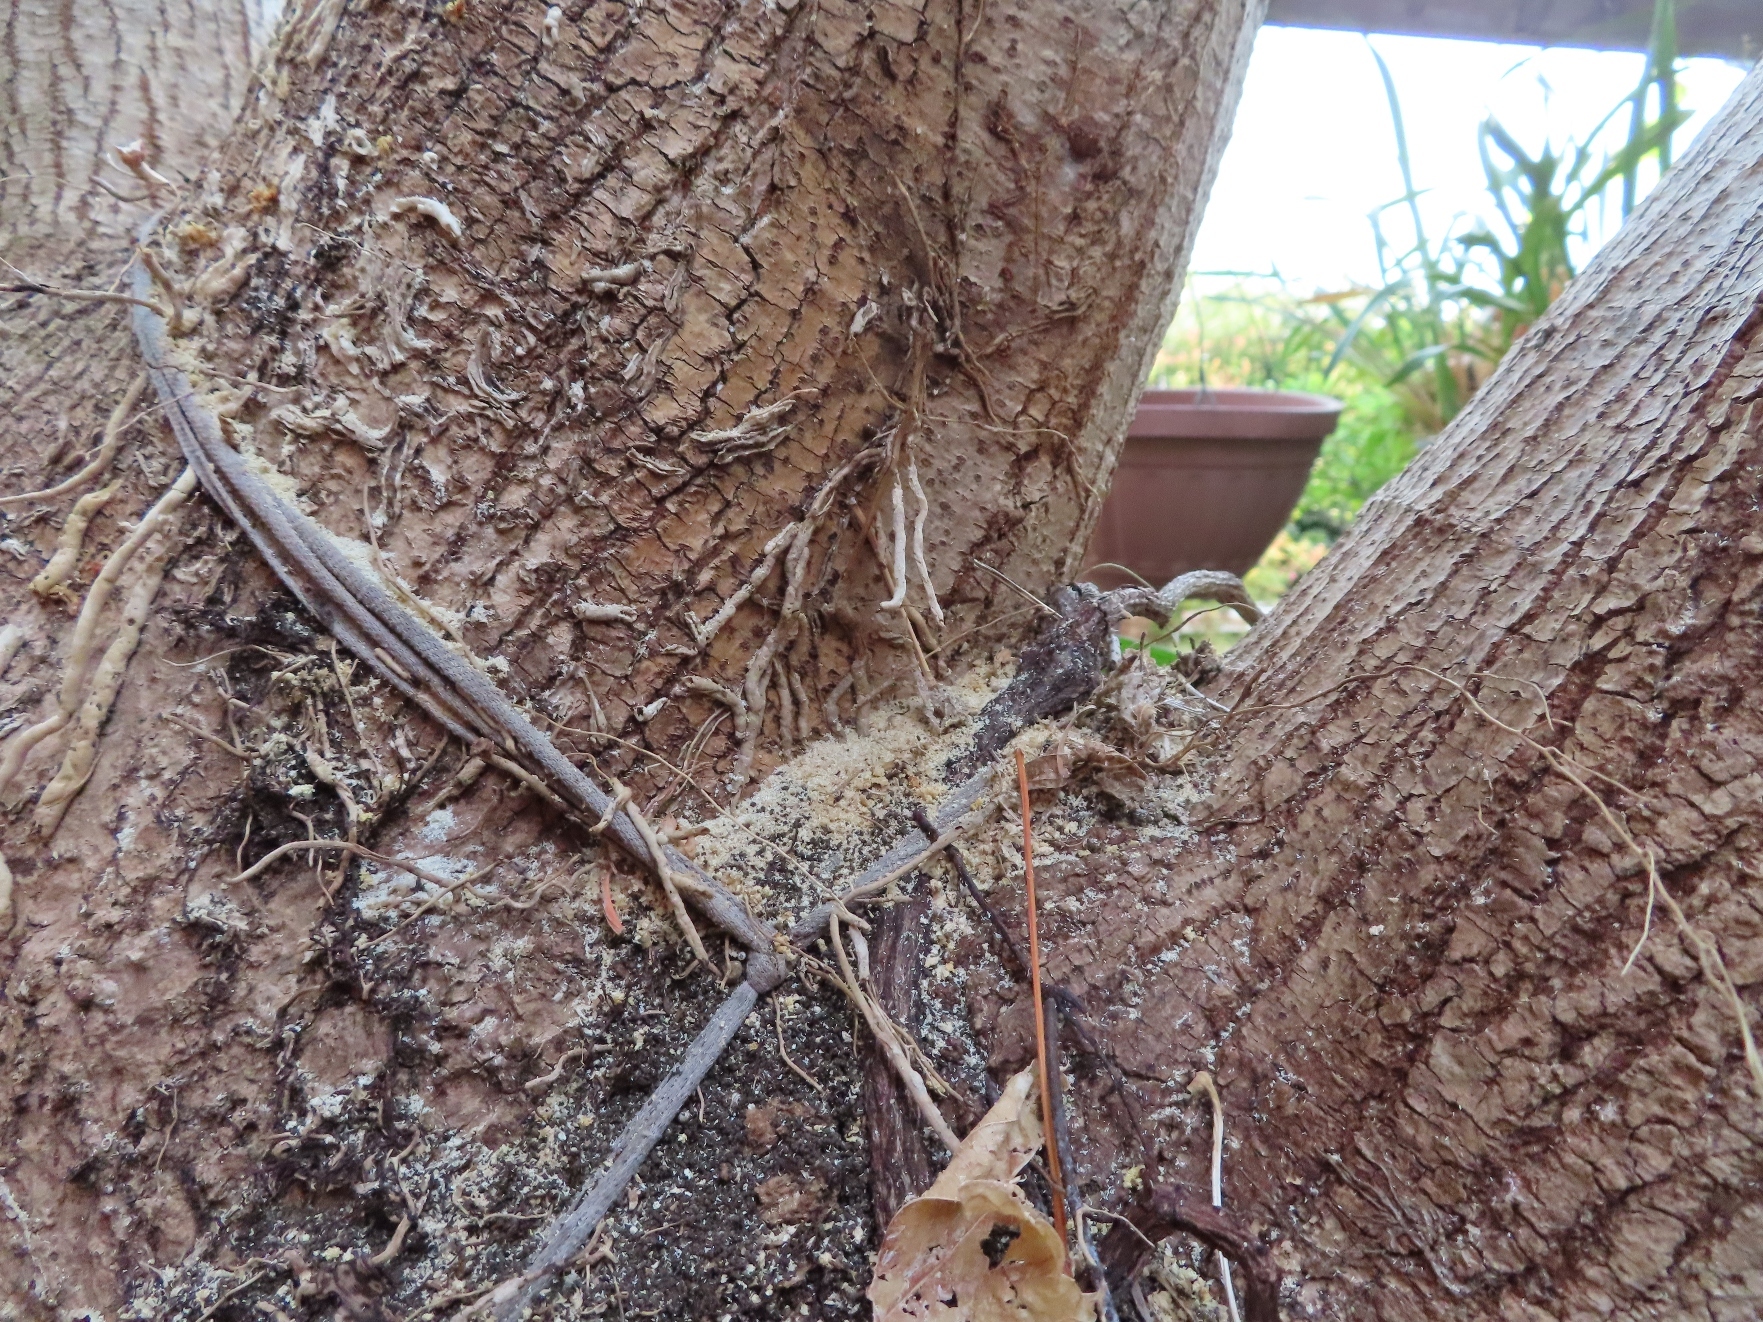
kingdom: Animalia
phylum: Arthropoda
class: Insecta
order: Coleoptera
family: Curculionidae
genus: Euwallacea
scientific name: Euwallacea fornicatus
